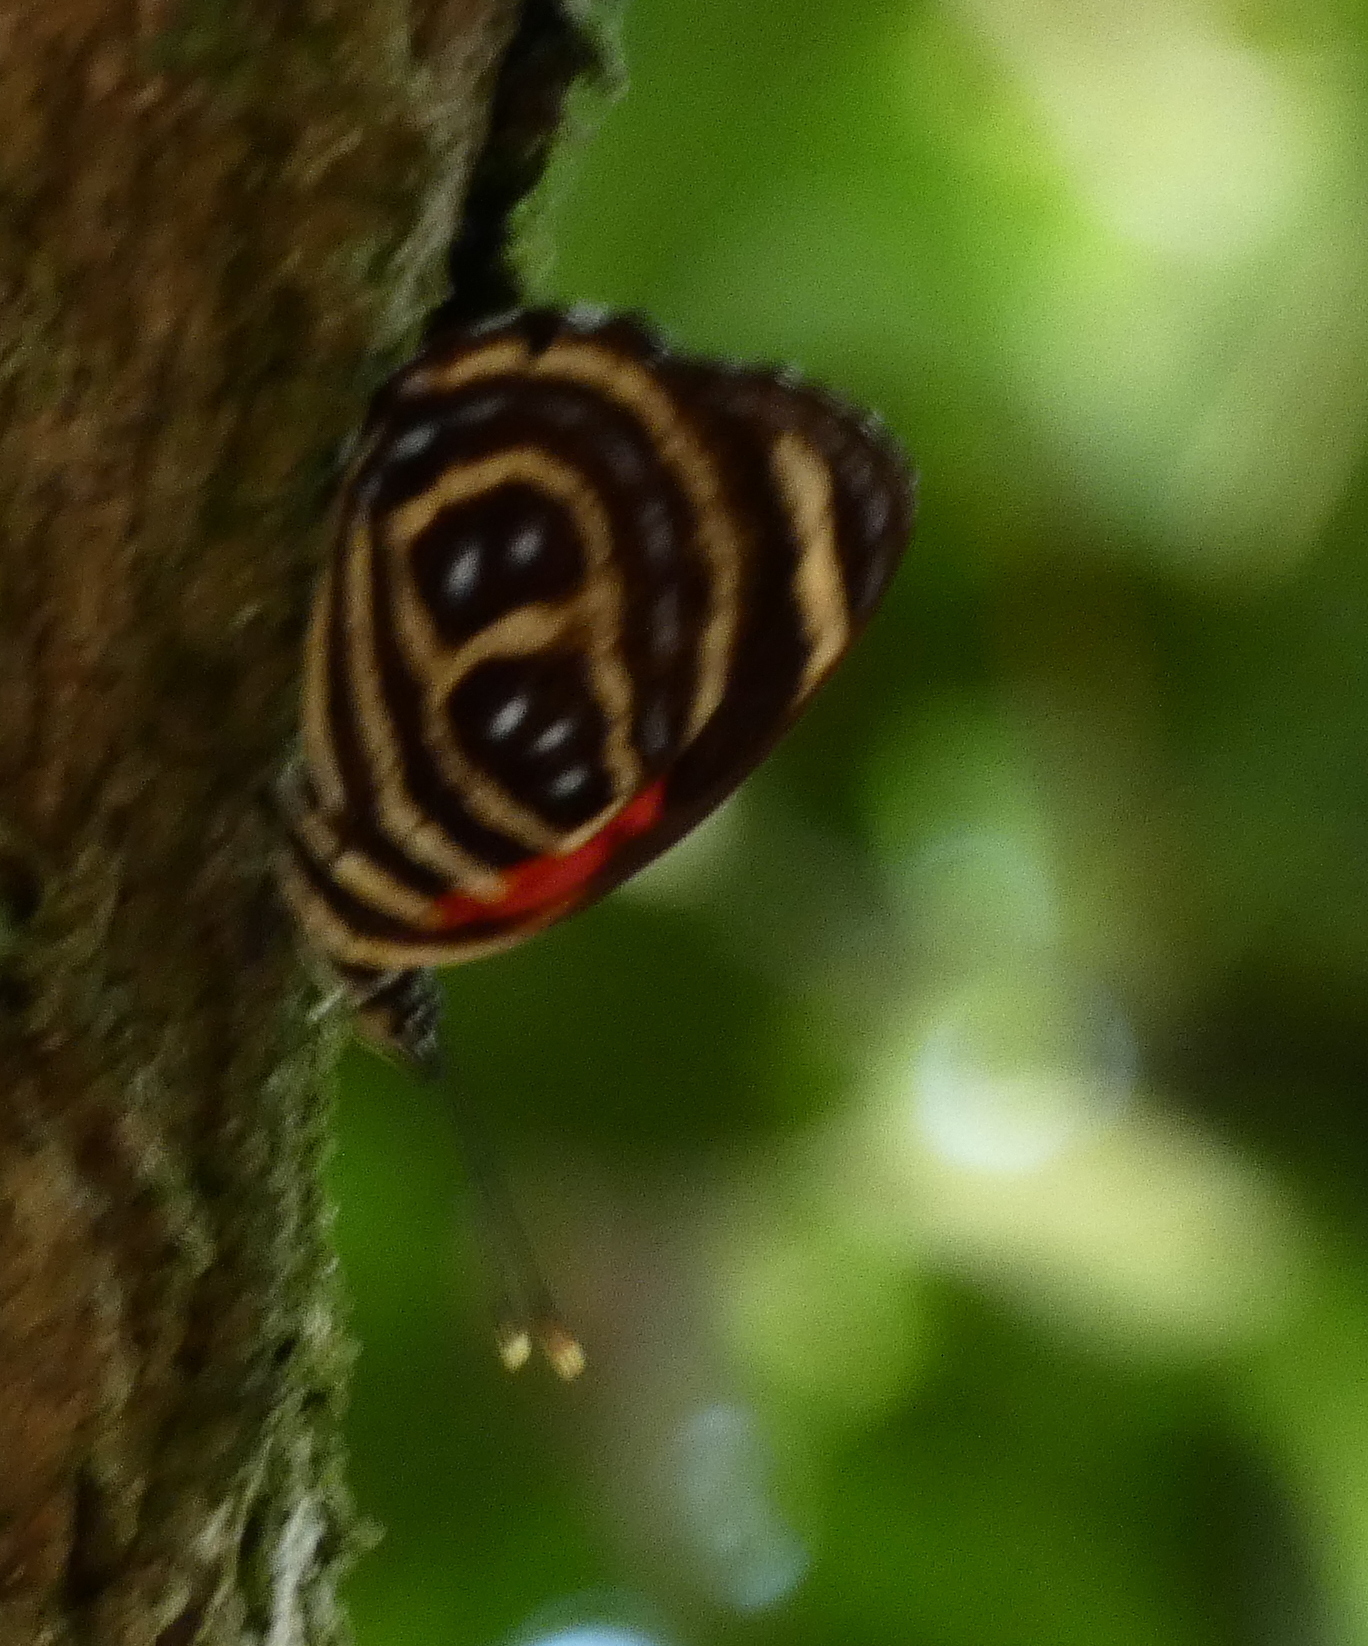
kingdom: Animalia
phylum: Arthropoda
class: Insecta
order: Lepidoptera
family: Nymphalidae
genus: Catagramma
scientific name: Catagramma pygas
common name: Godart's numberwing
